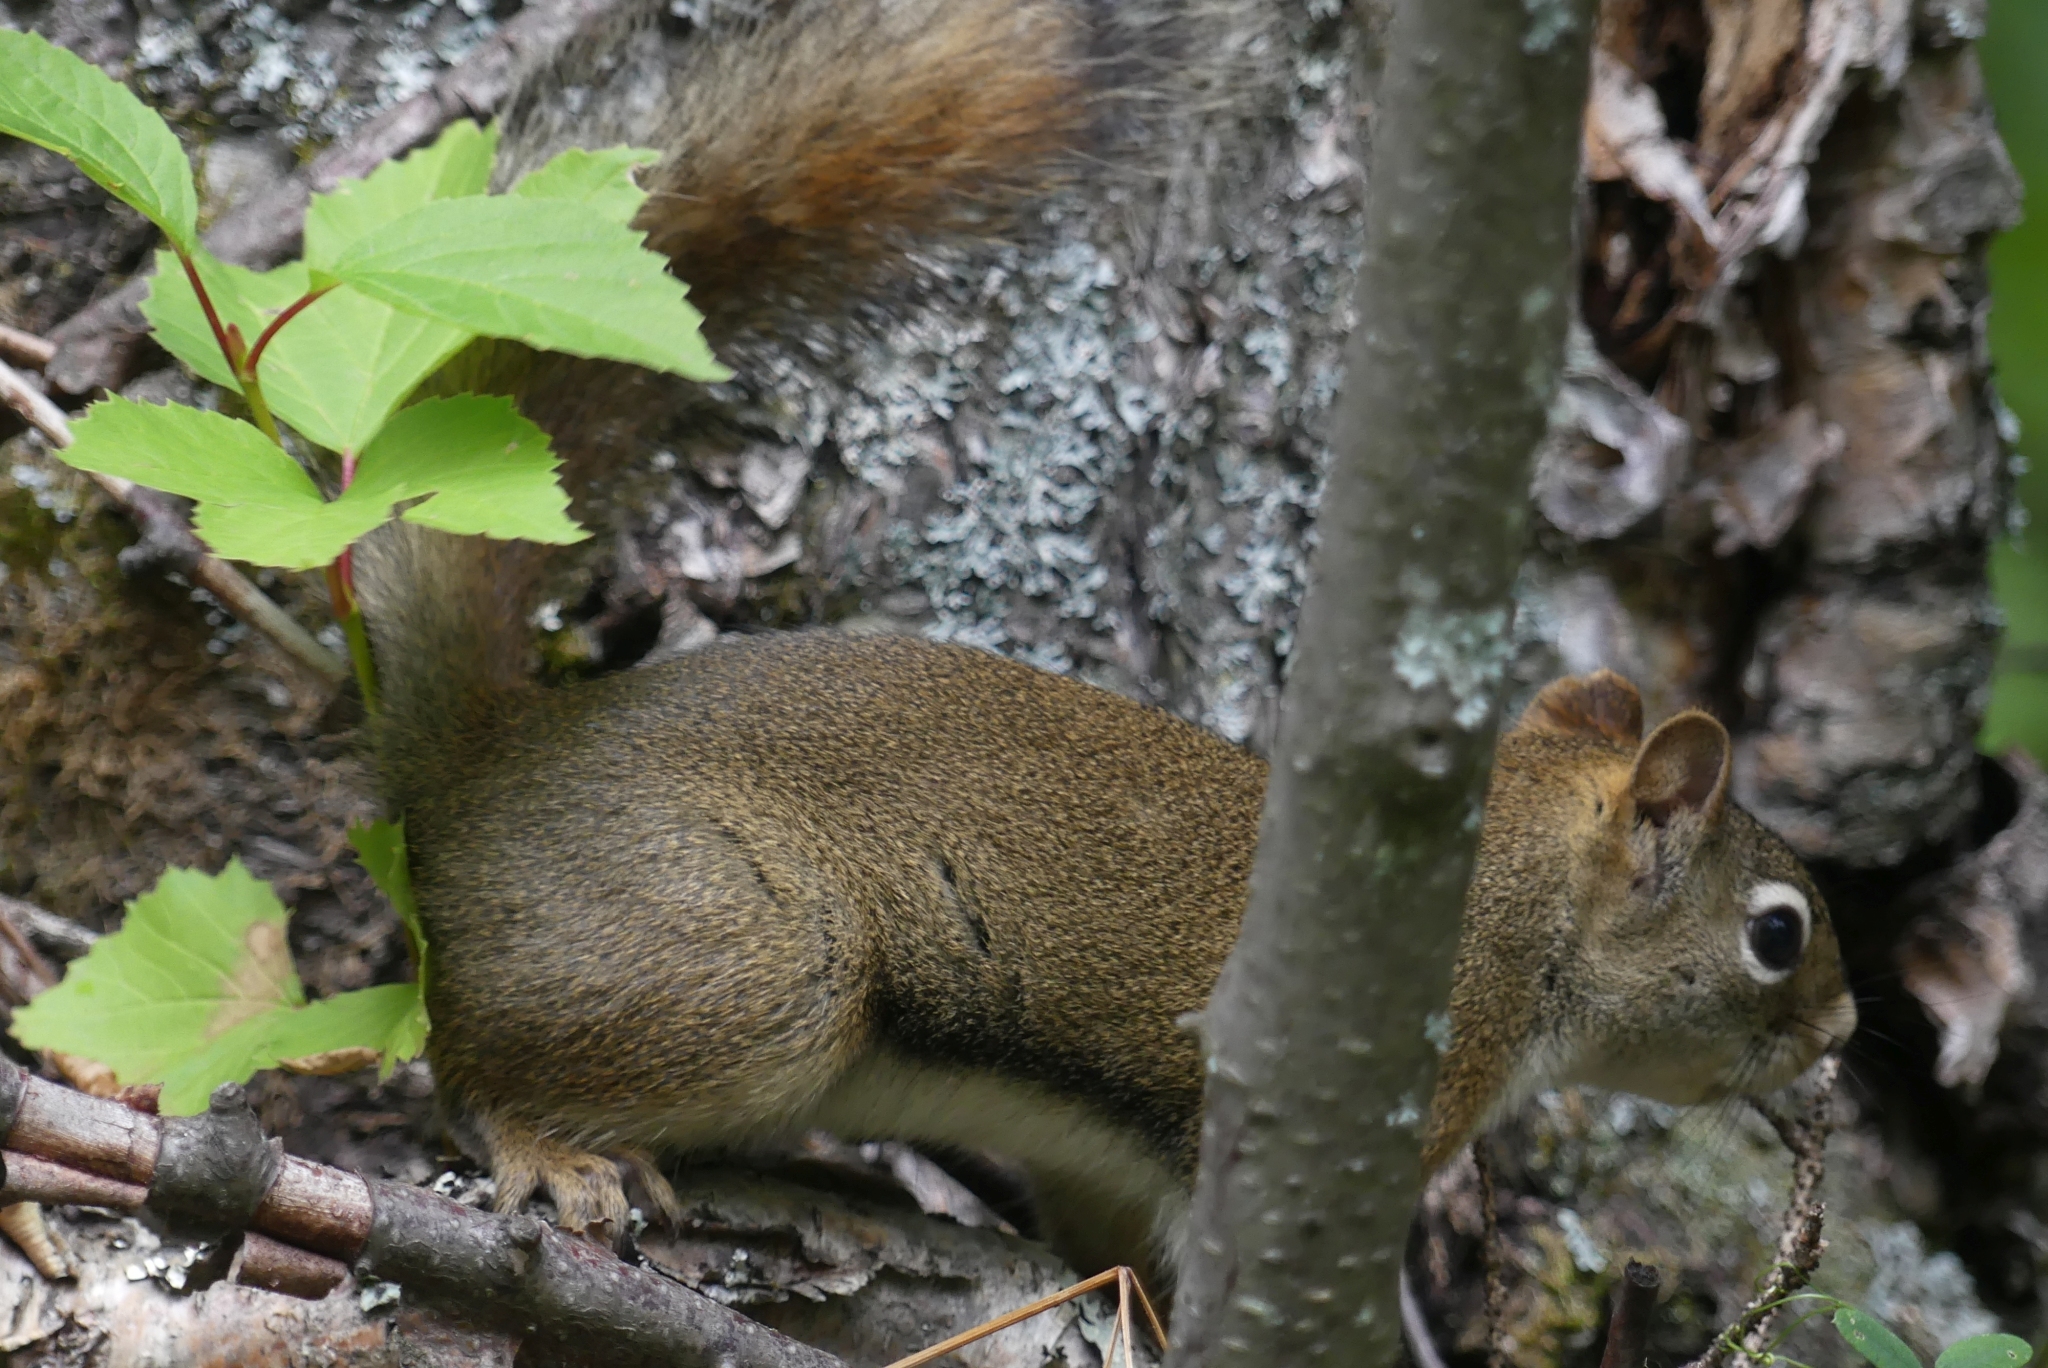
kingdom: Animalia
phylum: Chordata
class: Mammalia
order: Rodentia
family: Sciuridae
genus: Tamiasciurus
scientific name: Tamiasciurus hudsonicus
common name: Red squirrel
